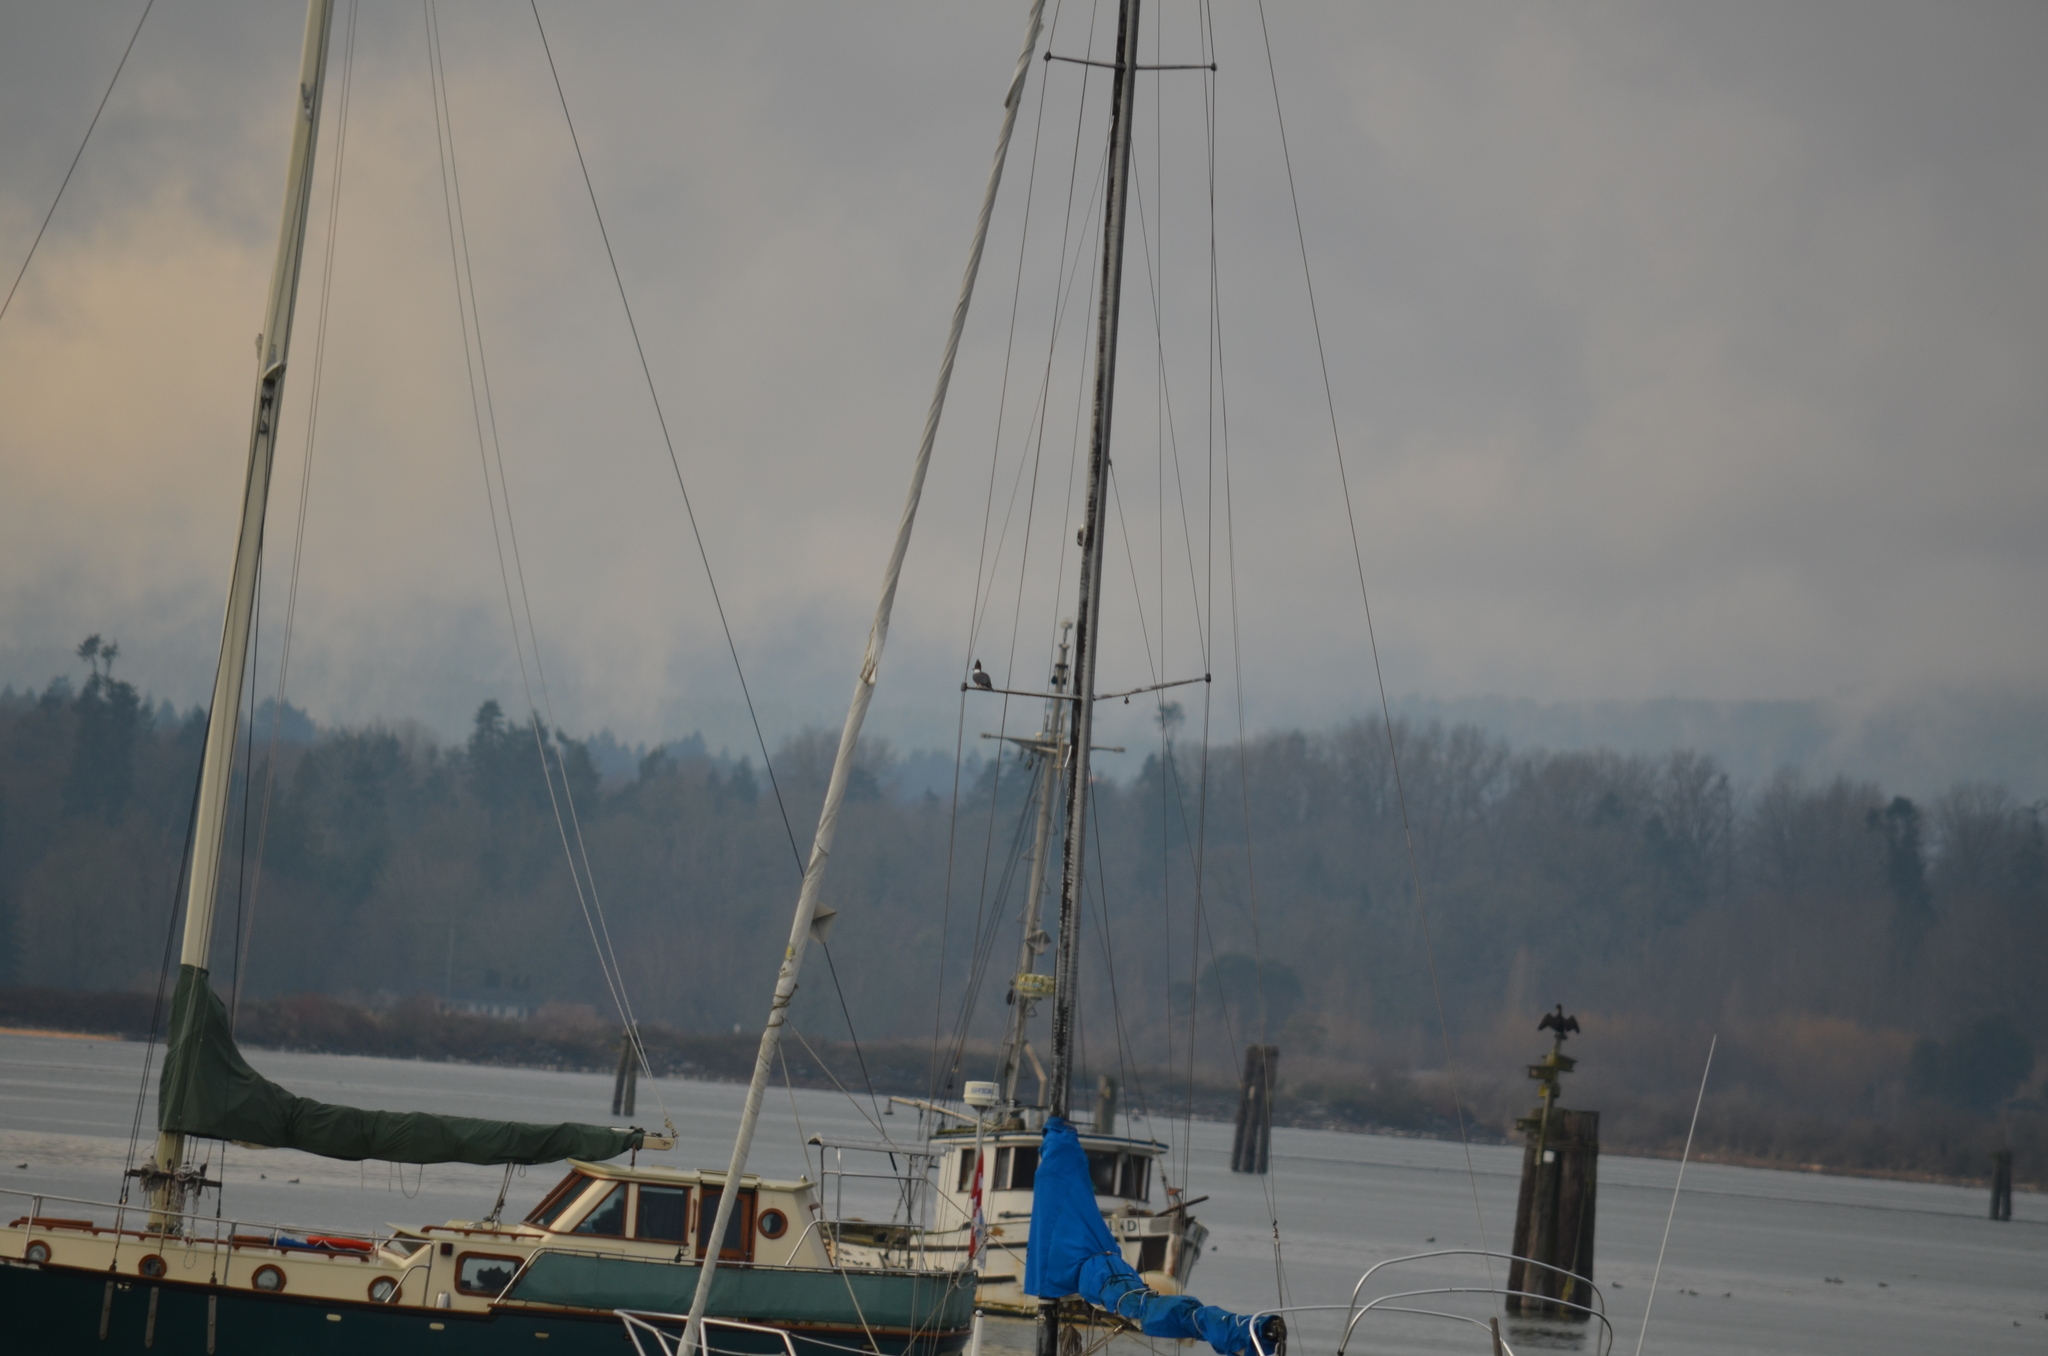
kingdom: Animalia
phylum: Chordata
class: Aves
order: Coraciiformes
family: Alcedinidae
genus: Megaceryle
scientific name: Megaceryle alcyon
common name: Belted kingfisher
